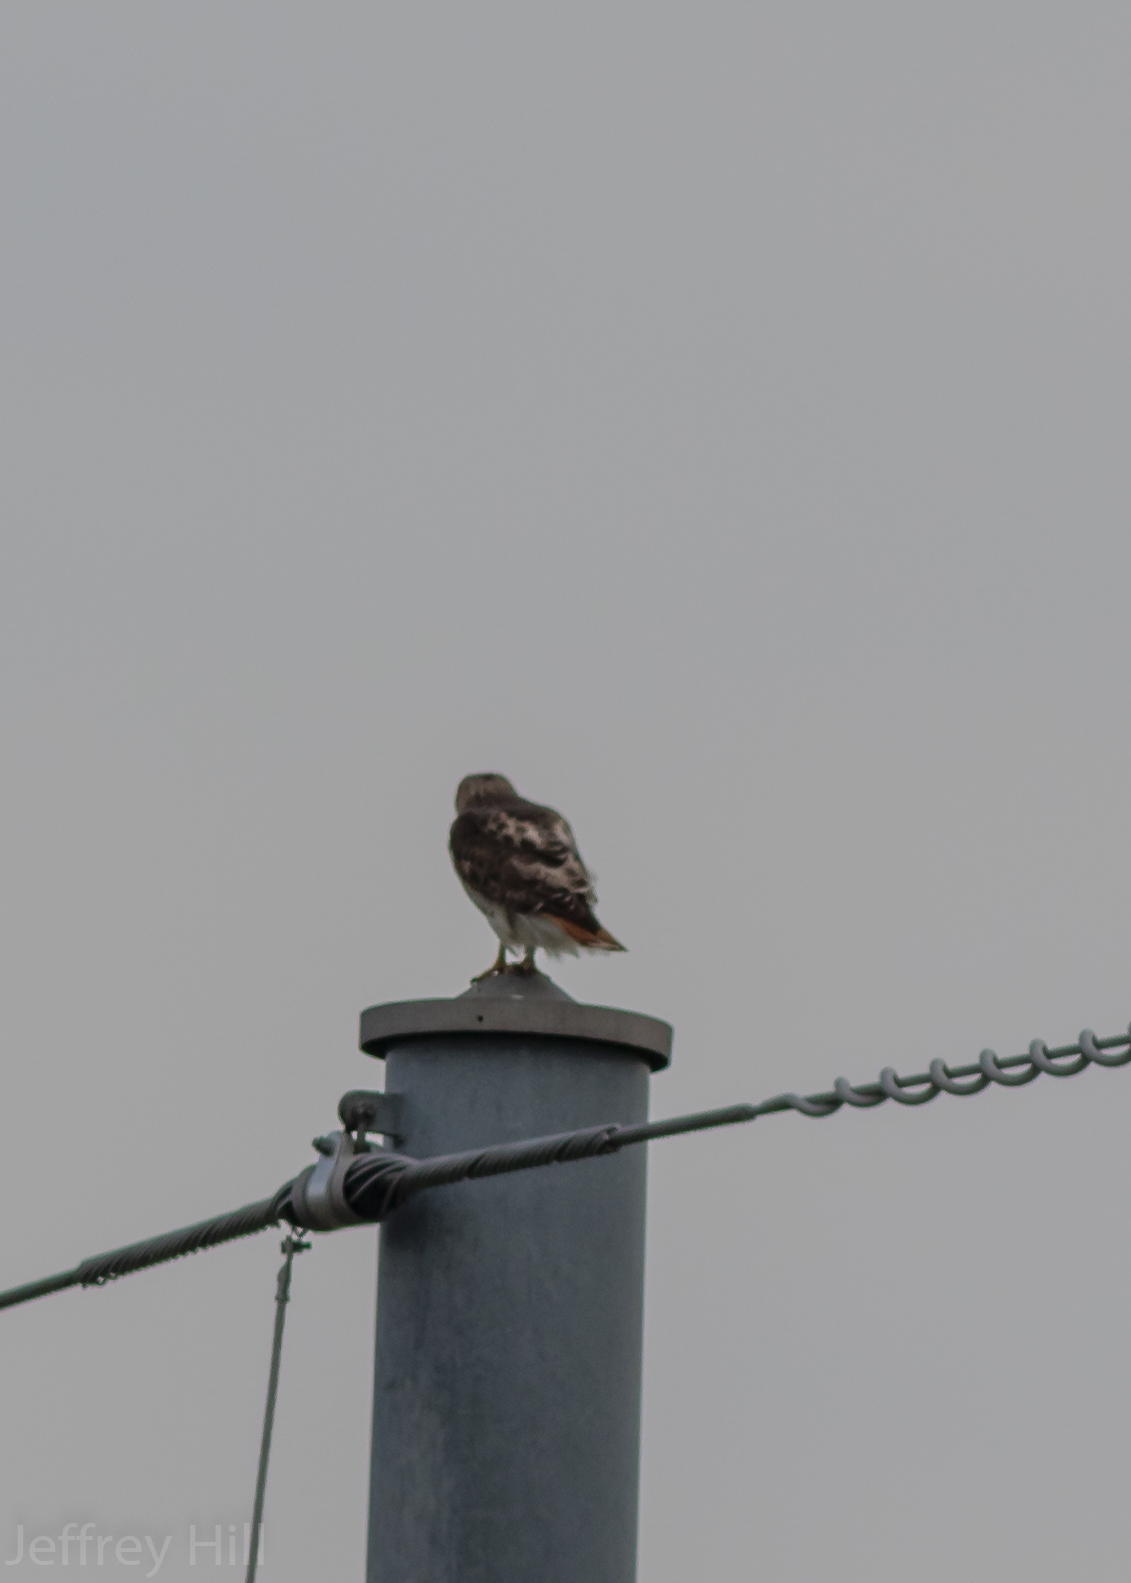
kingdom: Animalia
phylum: Chordata
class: Aves
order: Accipitriformes
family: Accipitridae
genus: Buteo
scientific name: Buteo jamaicensis
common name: Red-tailed hawk
